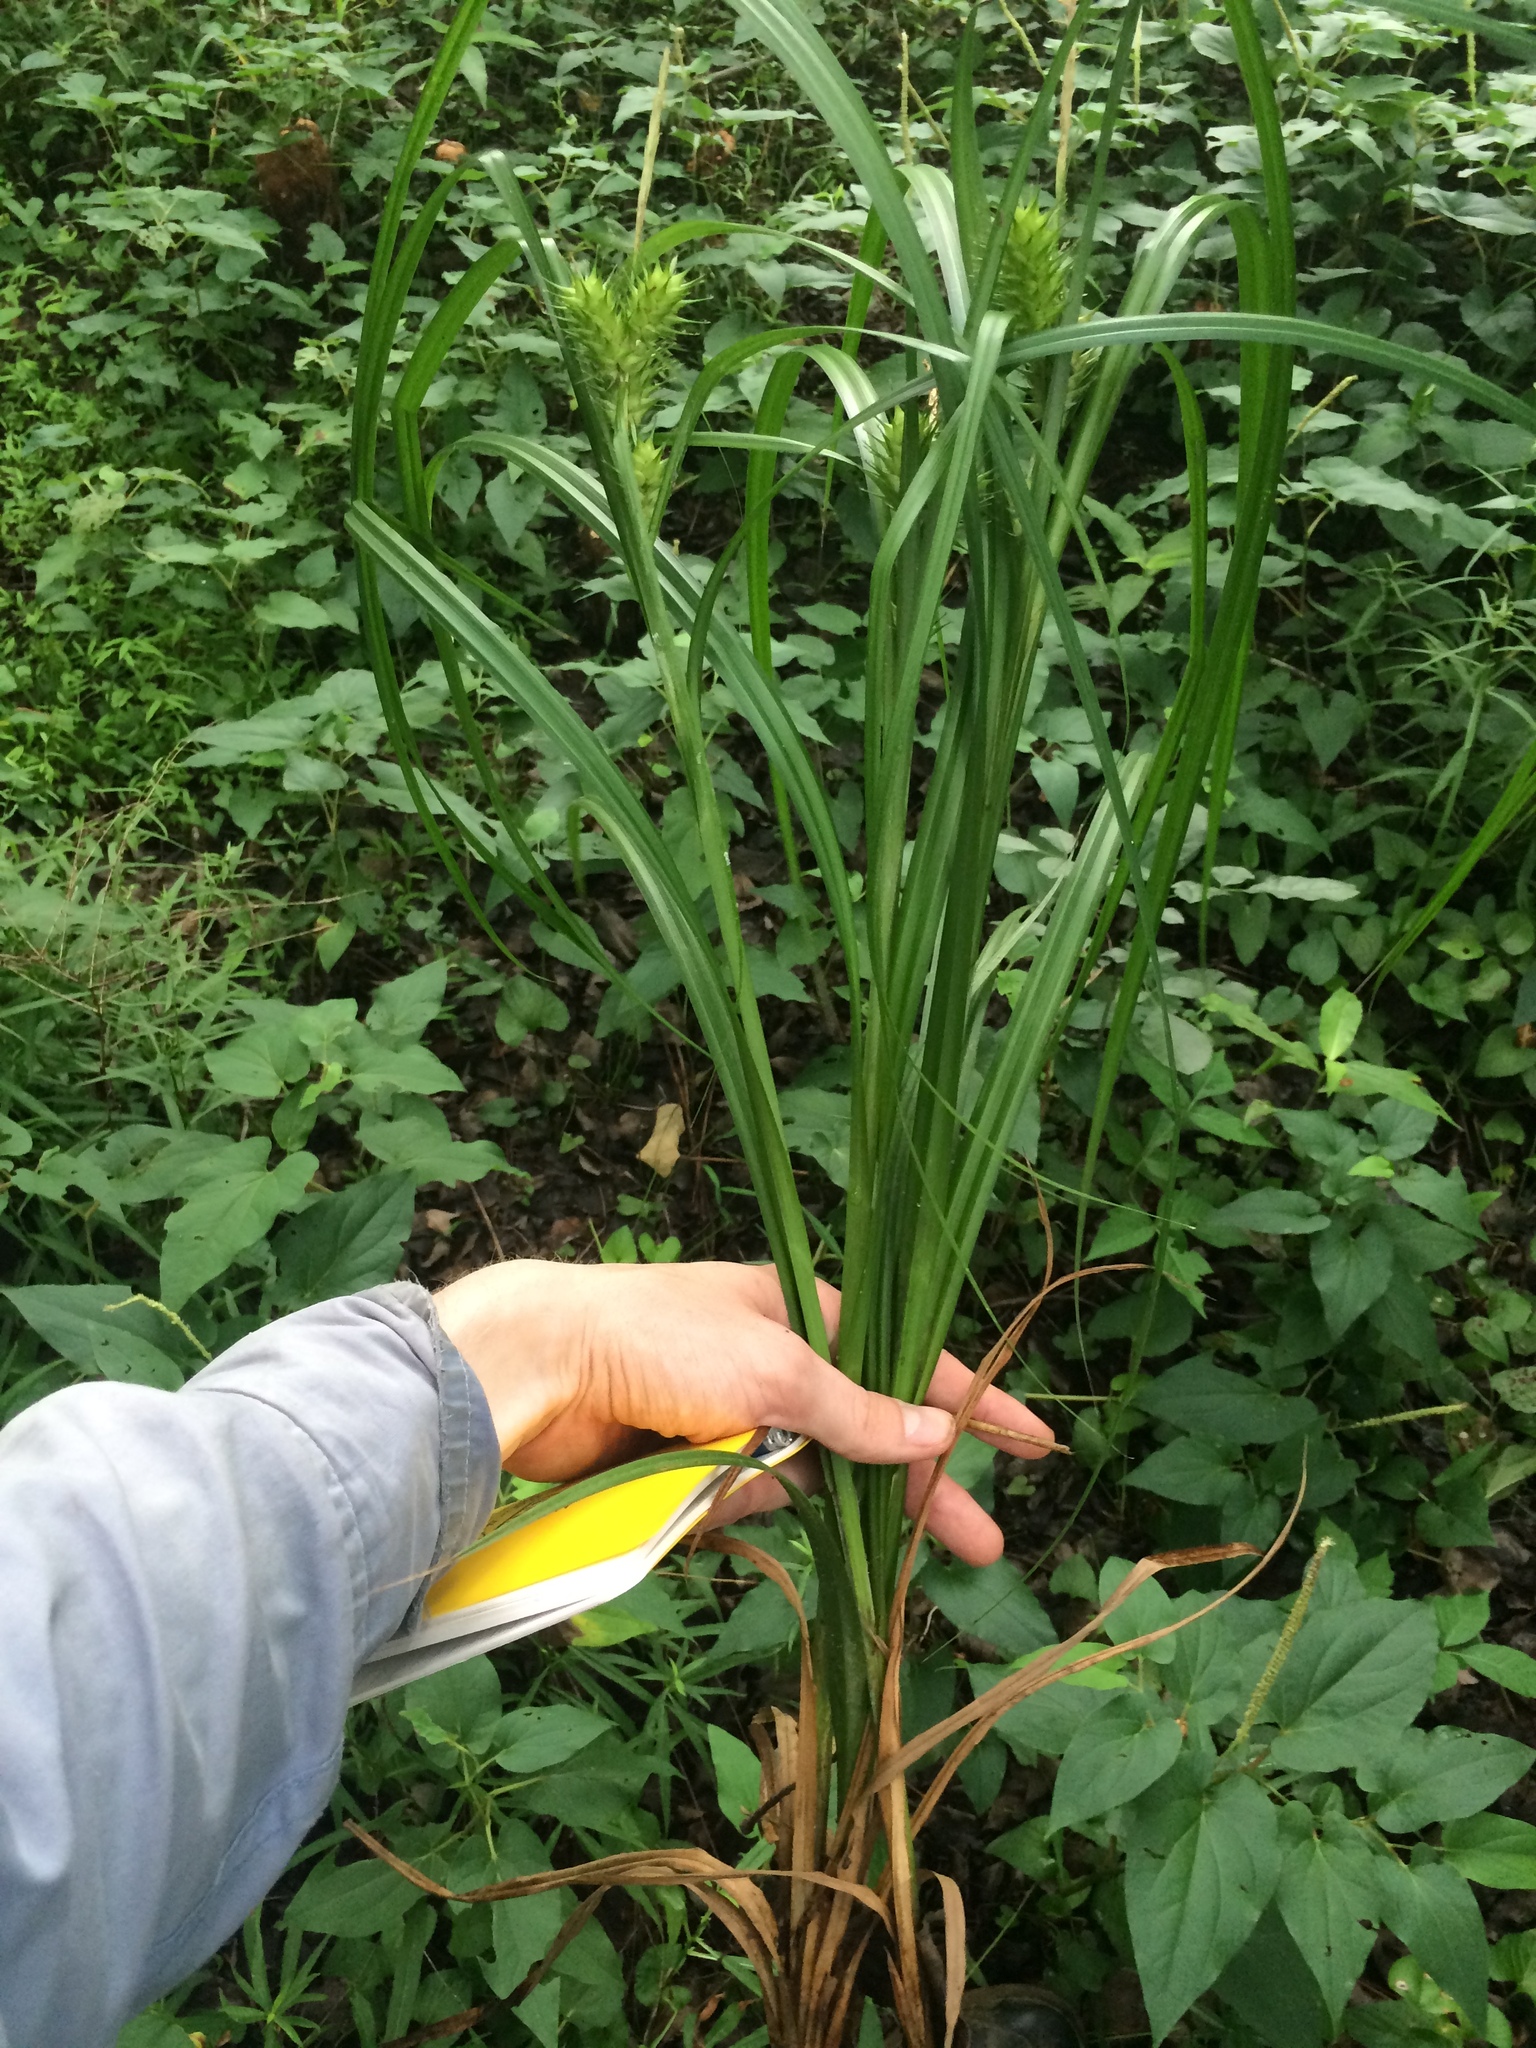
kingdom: Plantae
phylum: Tracheophyta
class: Liliopsida
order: Poales
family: Cyperaceae
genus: Carex
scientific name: Carex lupulina
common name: Hop sedge
